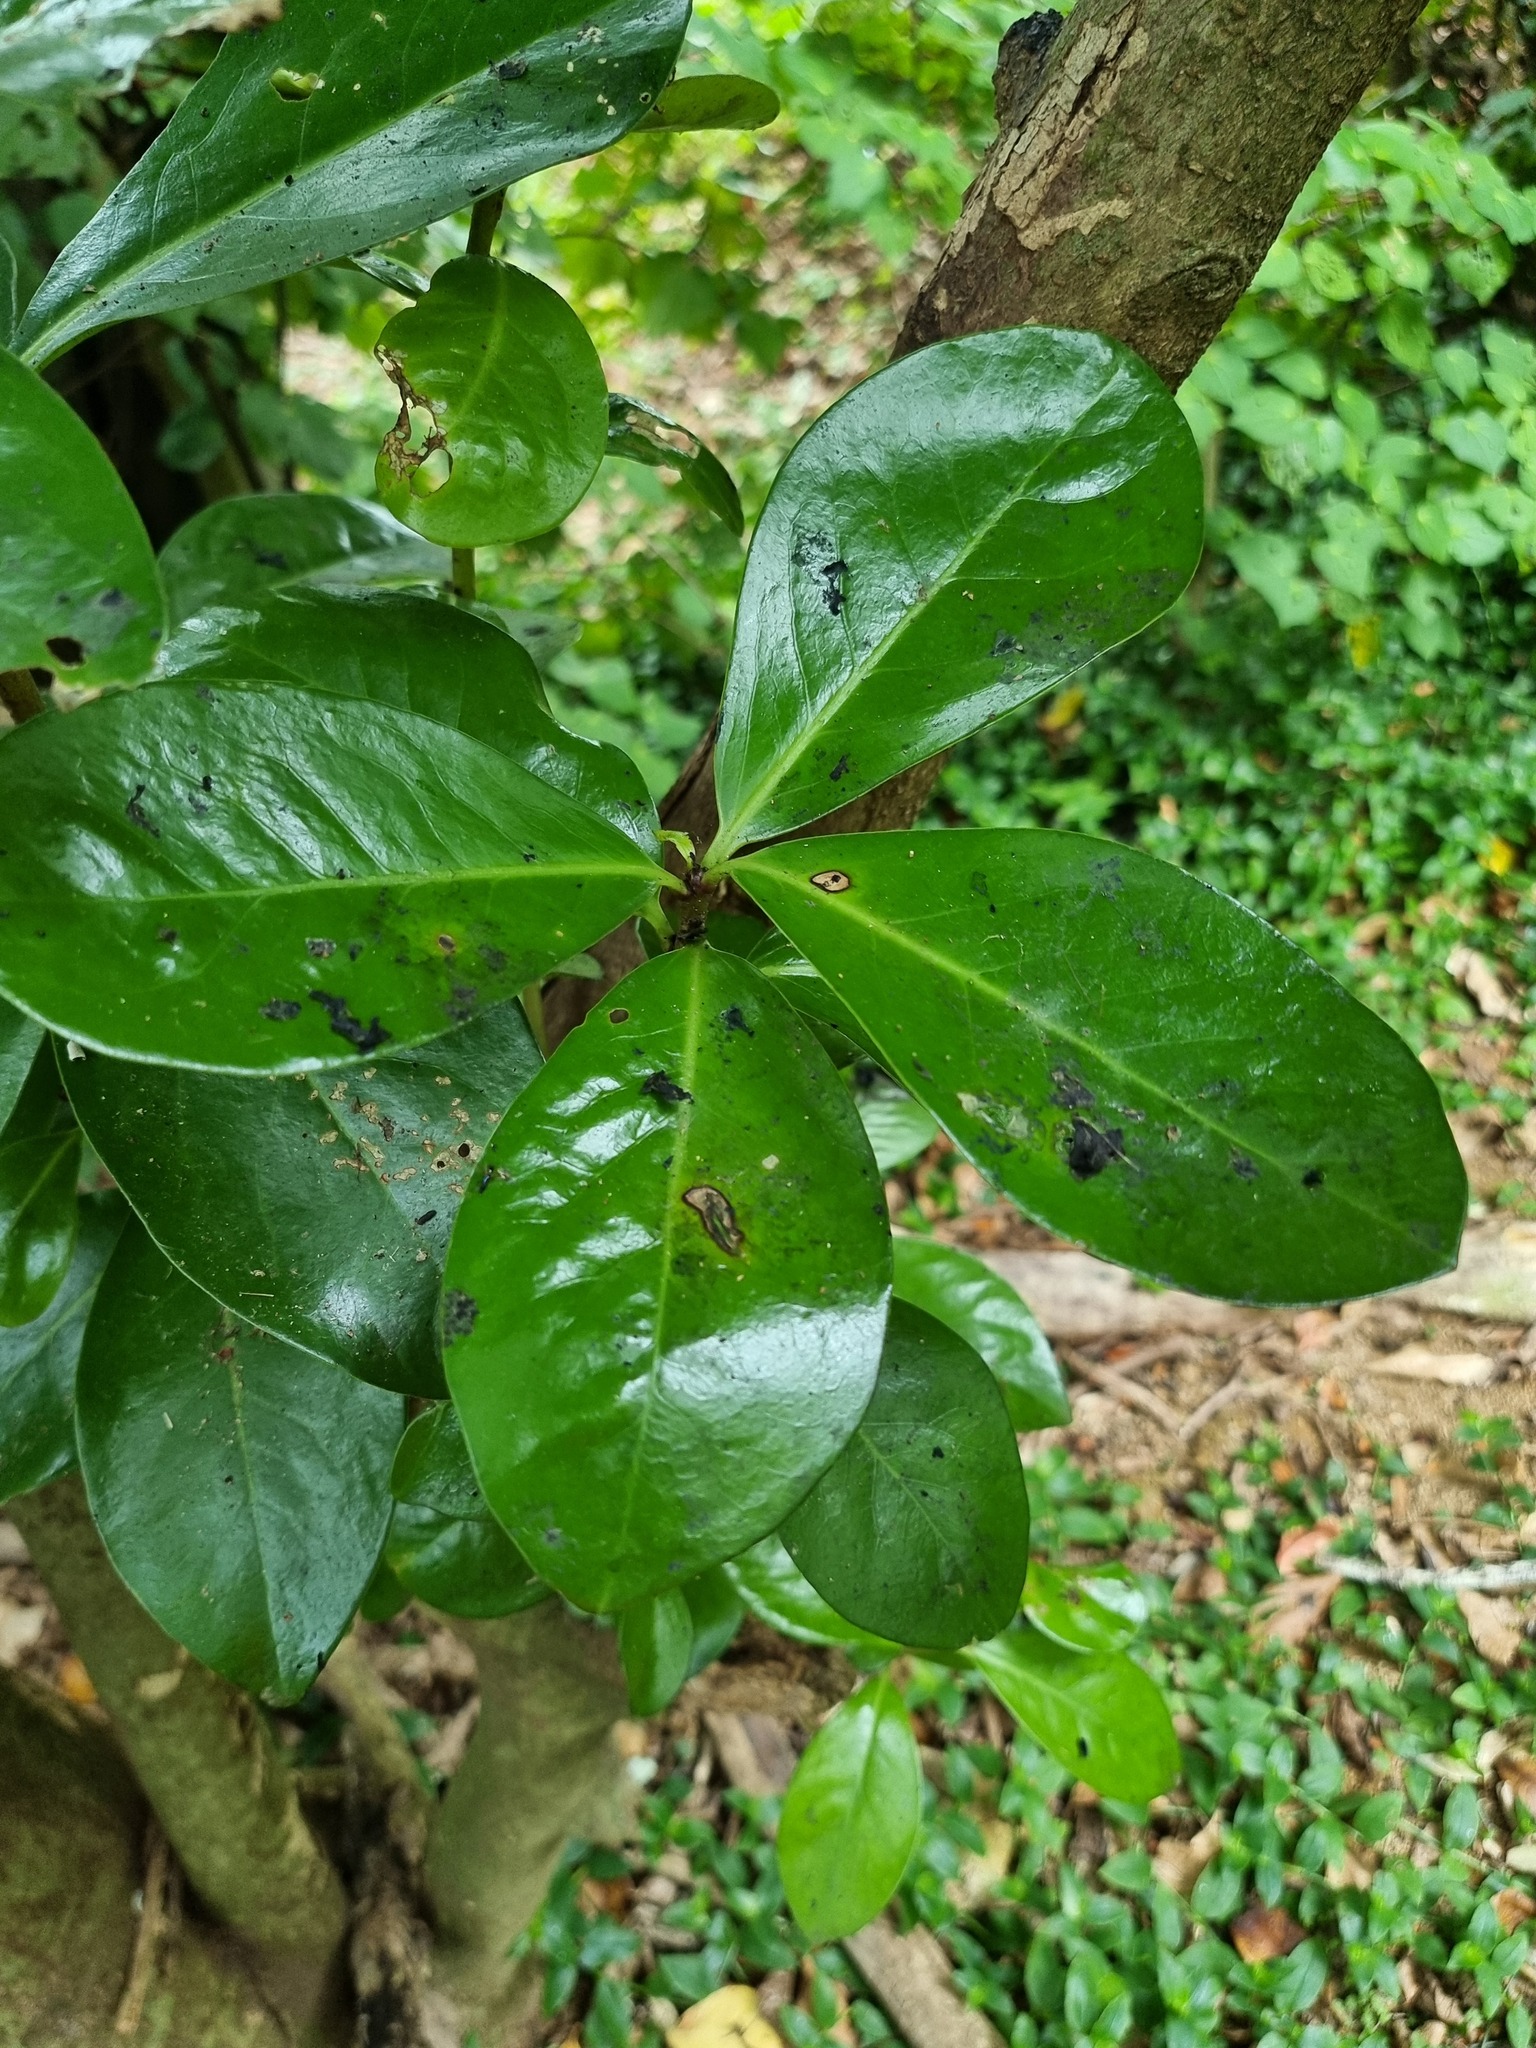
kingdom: Plantae
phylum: Tracheophyta
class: Magnoliopsida
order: Cucurbitales
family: Corynocarpaceae
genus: Corynocarpus
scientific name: Corynocarpus laevigatus
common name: New zealand laurel
